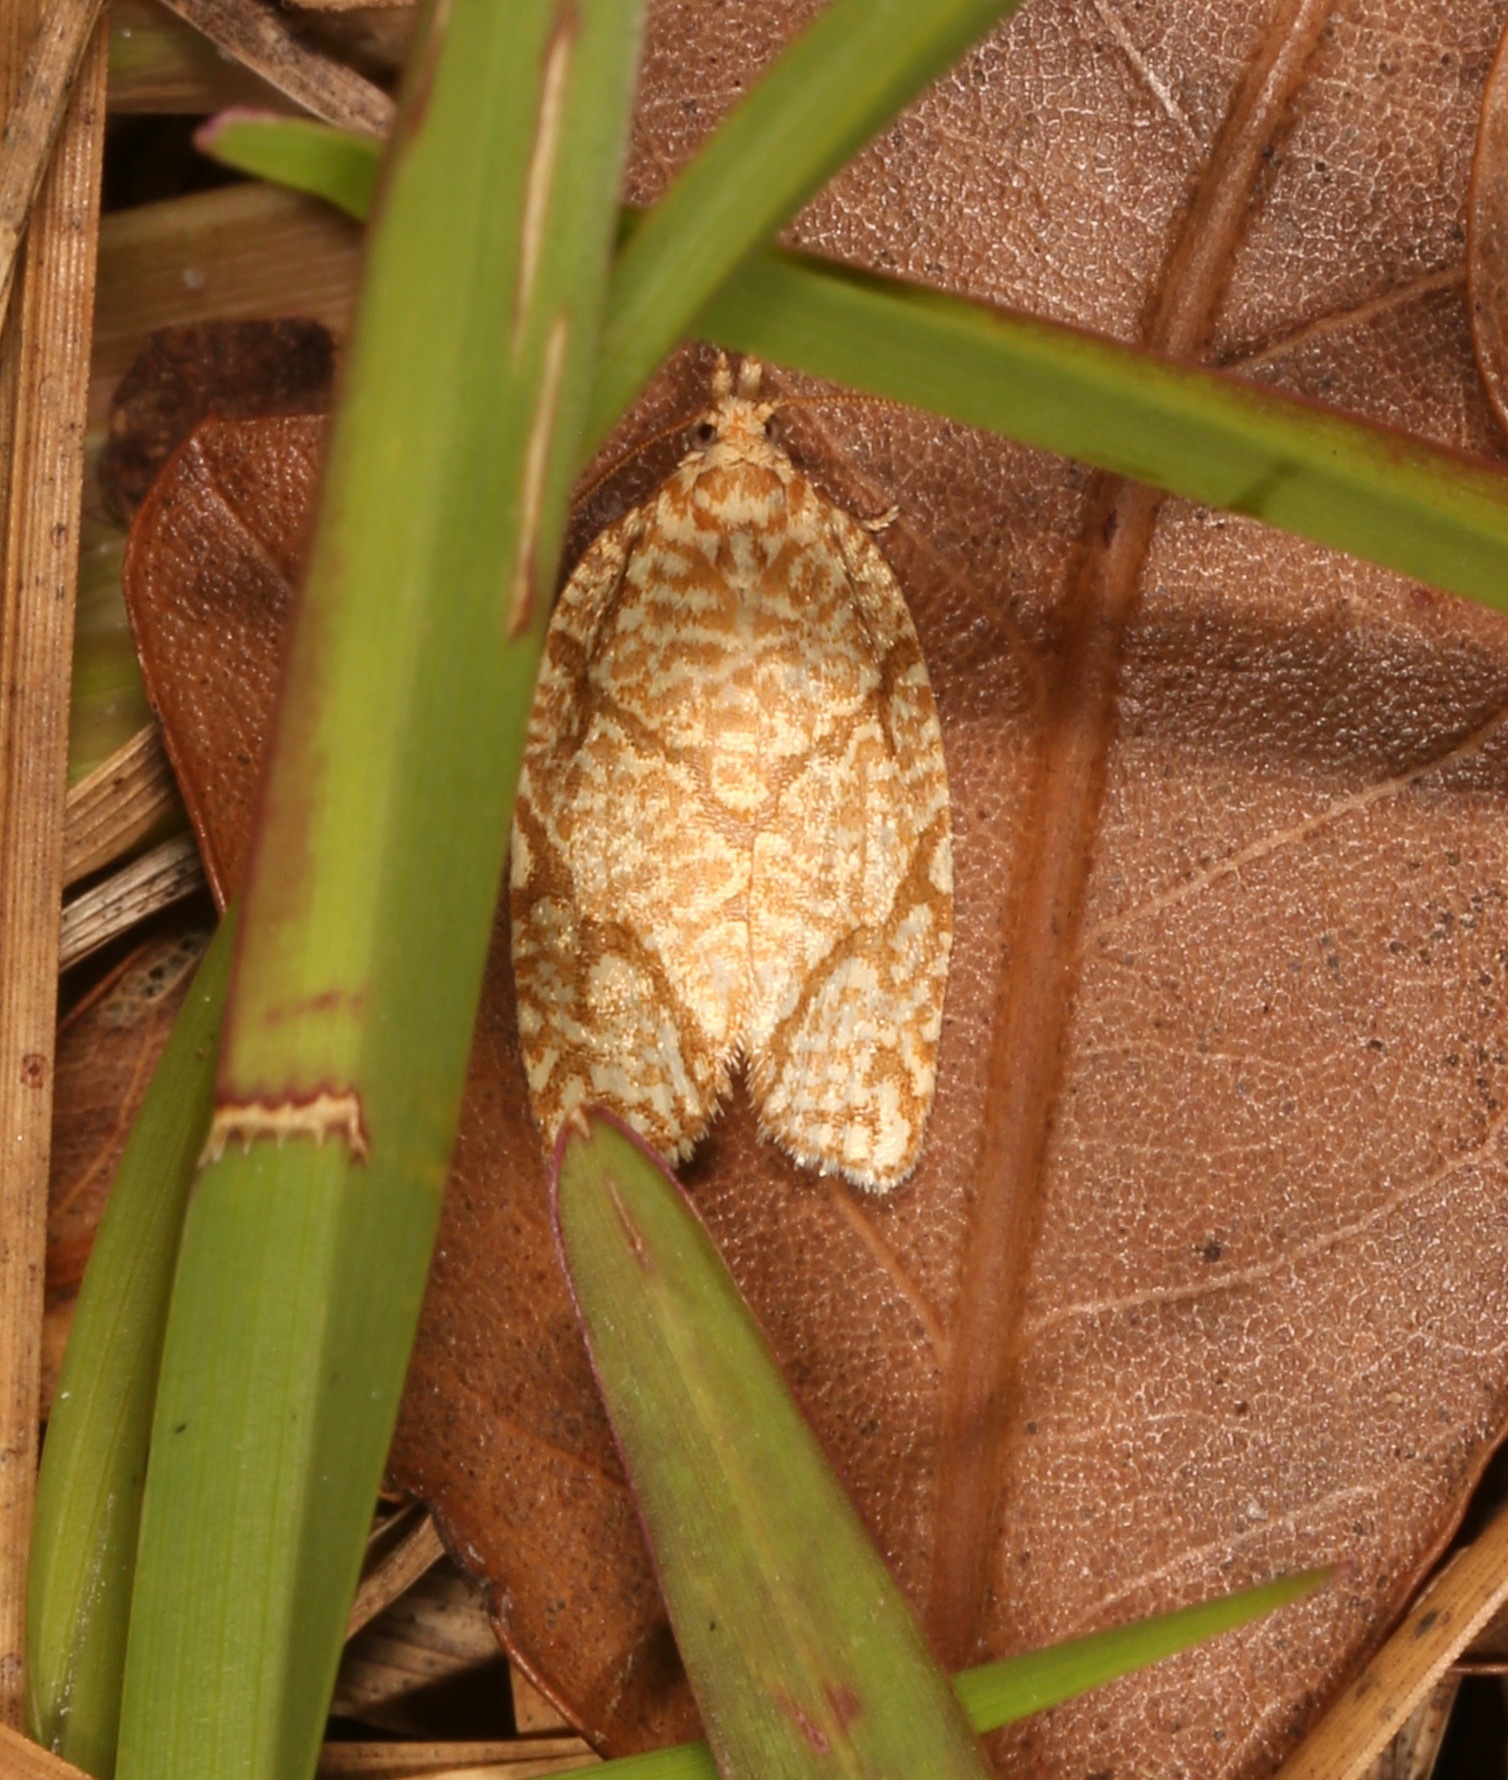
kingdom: Animalia
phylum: Arthropoda
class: Insecta
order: Lepidoptera
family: Tortricidae
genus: Argyrotaenia
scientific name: Argyrotaenia quercifoliana
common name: Yellow-winged oak leafroller moth
